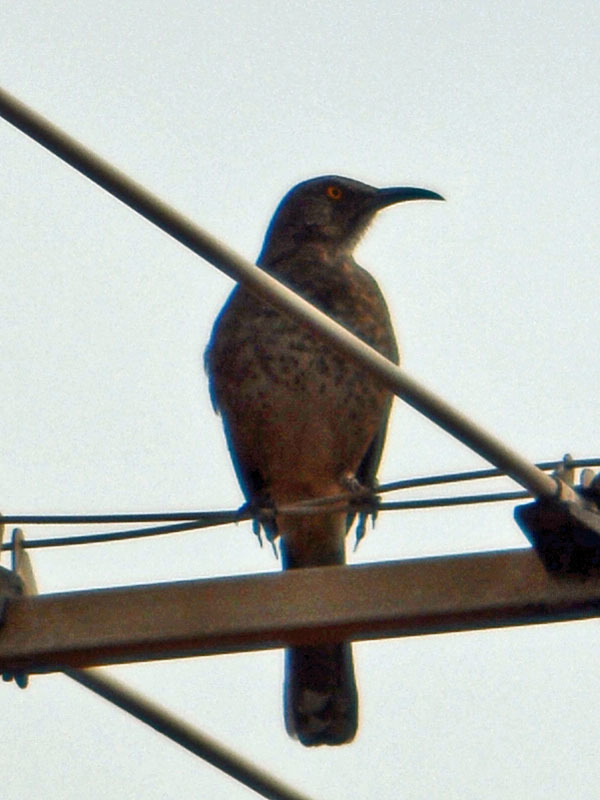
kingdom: Animalia
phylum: Chordata
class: Aves
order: Passeriformes
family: Mimidae
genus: Toxostoma
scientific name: Toxostoma curvirostre
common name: Curve-billed thrasher
